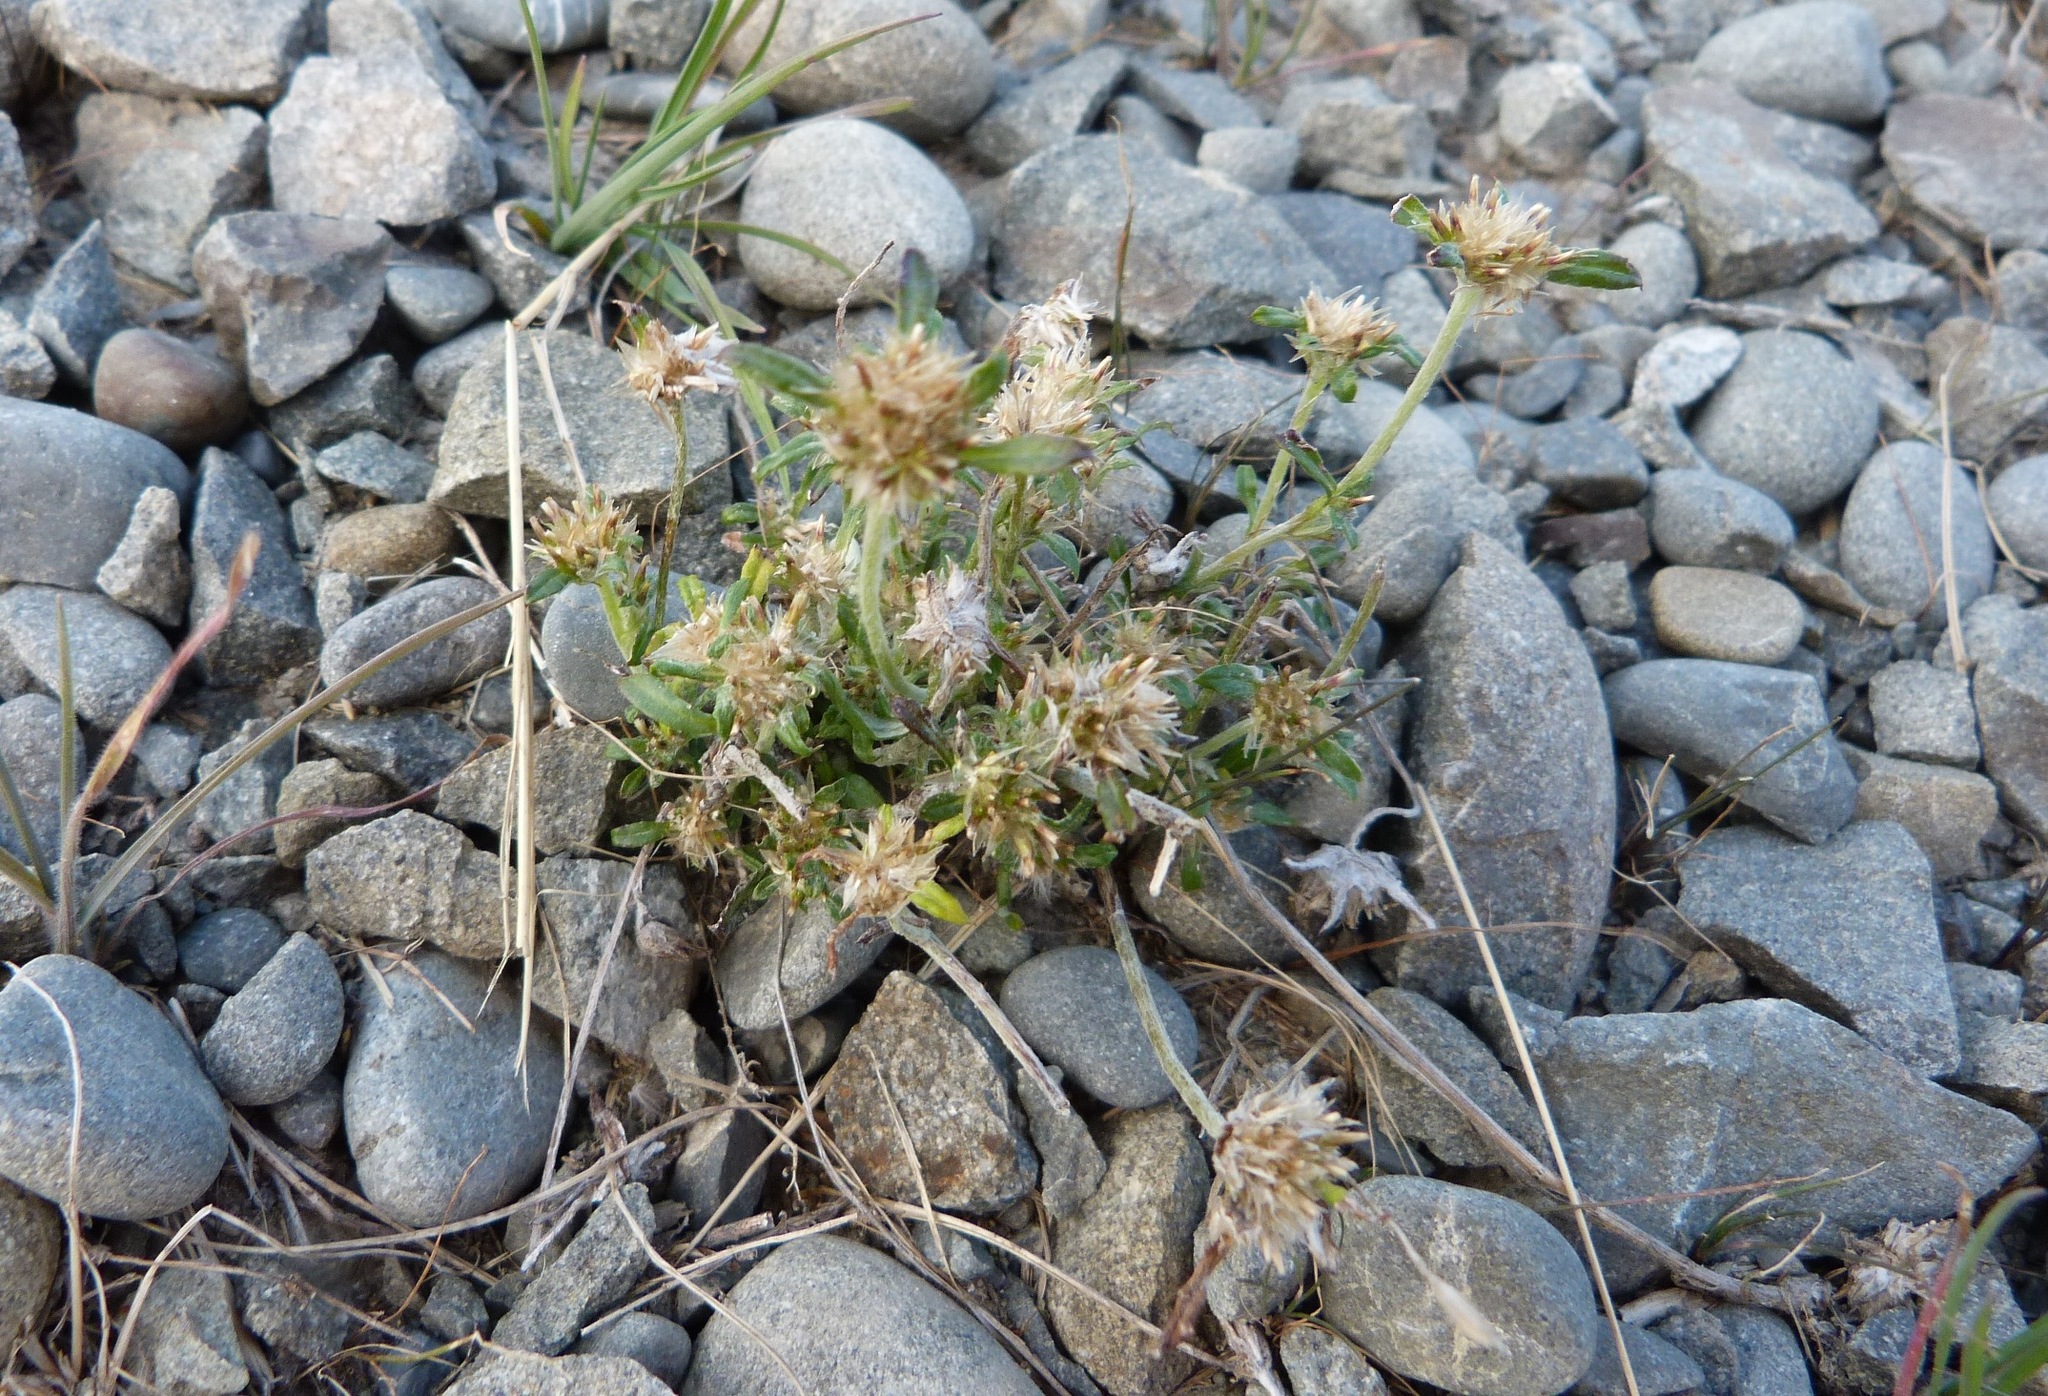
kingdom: Plantae
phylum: Tracheophyta
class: Magnoliopsida
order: Asterales
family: Asteraceae
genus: Euchiton
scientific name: Euchiton sphaericus
